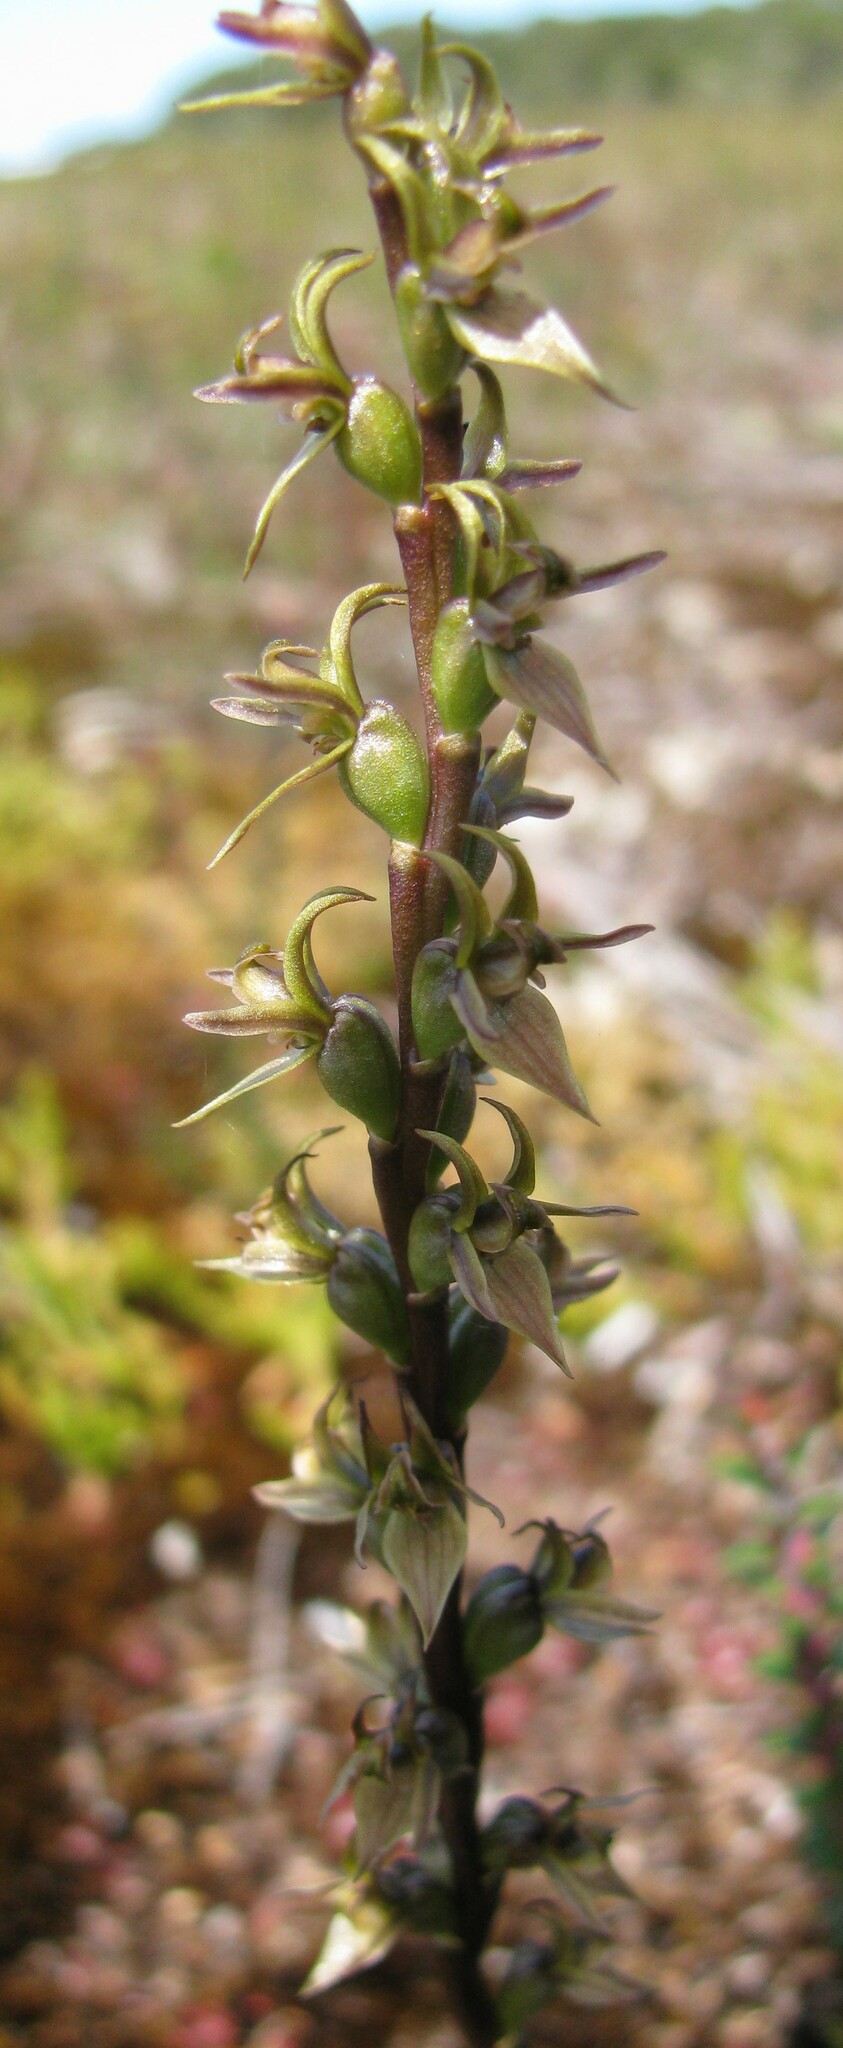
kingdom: Plantae
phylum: Tracheophyta
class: Liliopsida
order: Asparagales
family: Orchidaceae
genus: Prasophyllum
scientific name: Prasophyllum atratum
